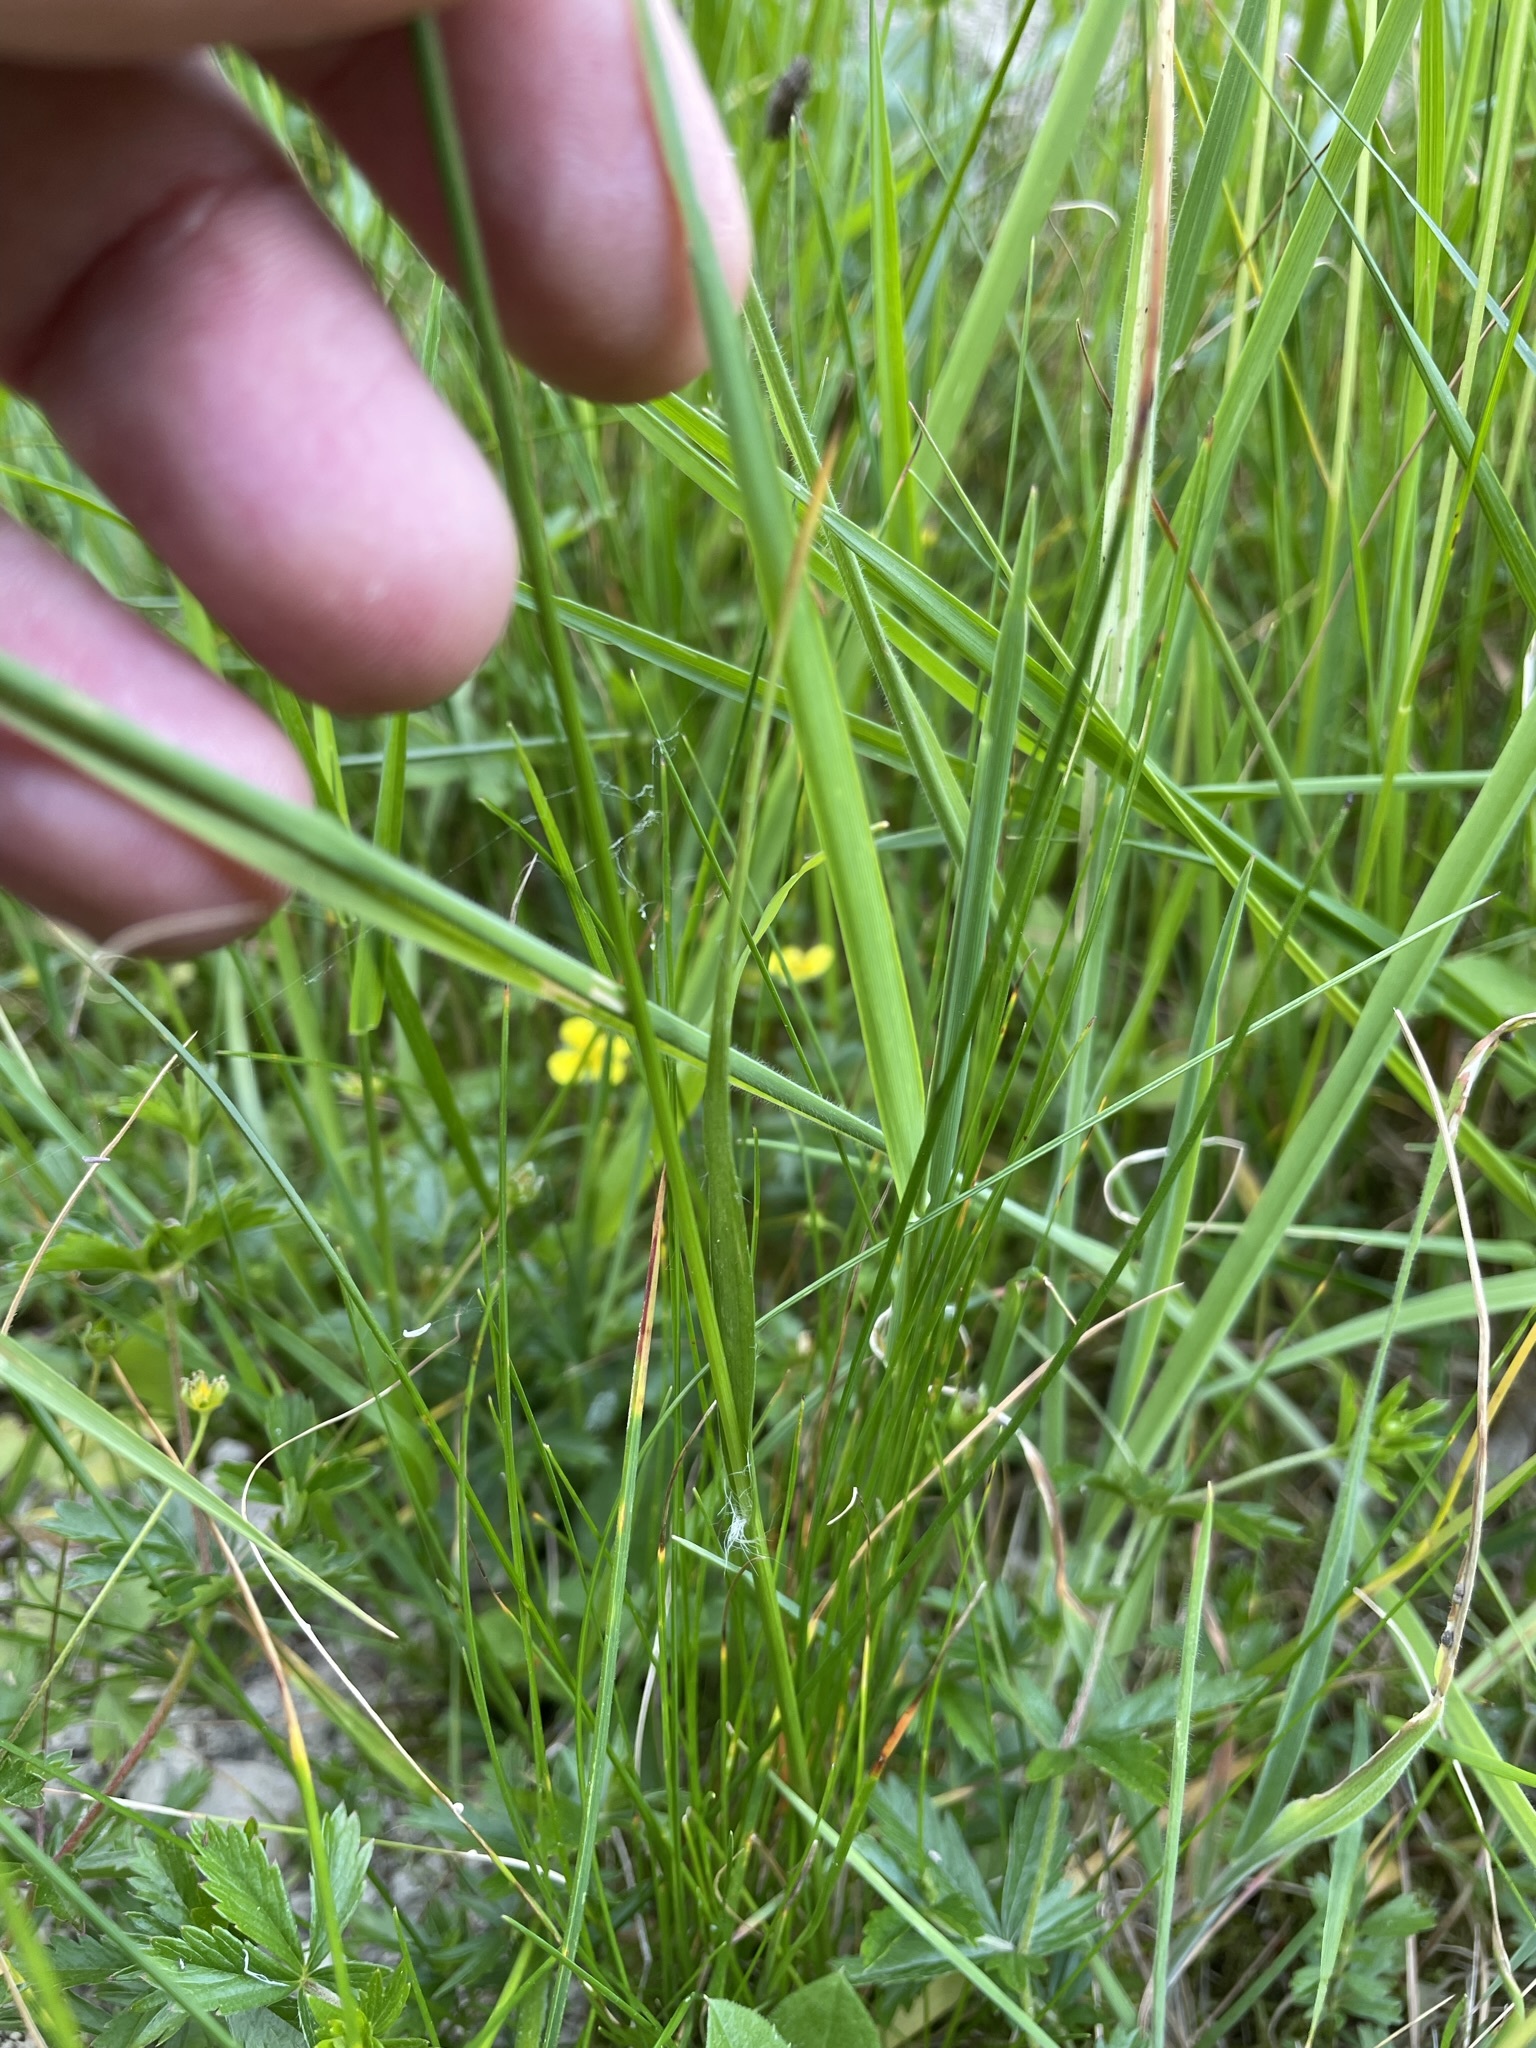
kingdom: Plantae
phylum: Tracheophyta
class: Liliopsida
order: Poales
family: Juncaceae
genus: Luzula
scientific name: Luzula multiflora
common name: Heath wood-rush
